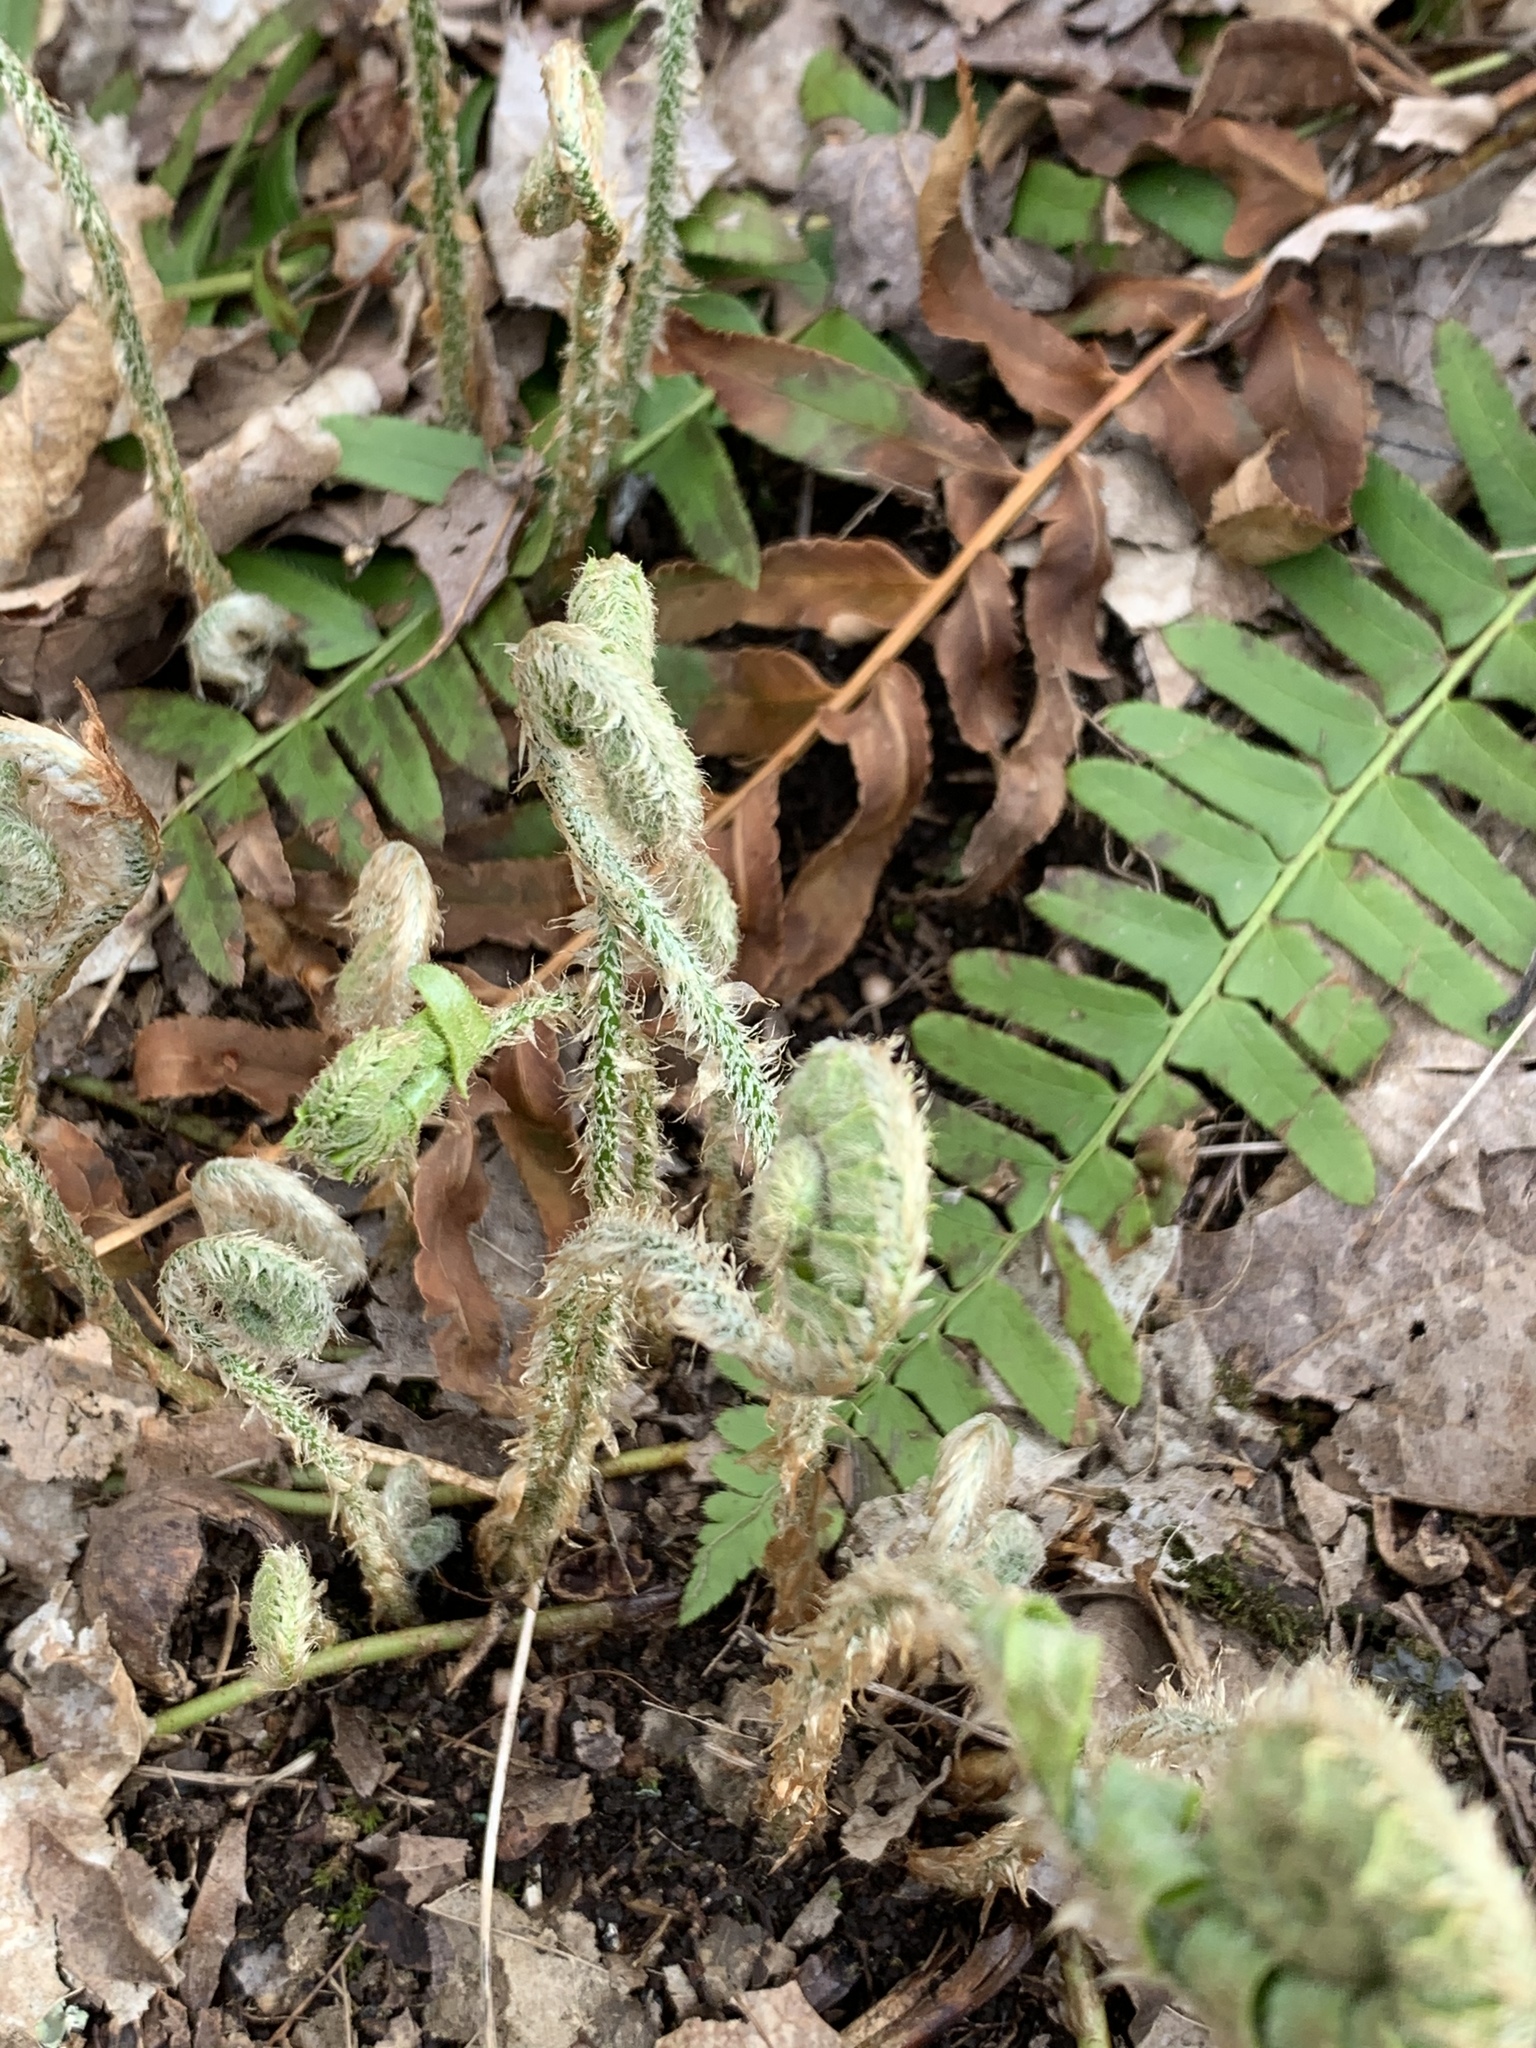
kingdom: Plantae
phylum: Tracheophyta
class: Polypodiopsida
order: Polypodiales
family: Dryopteridaceae
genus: Polystichum
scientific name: Polystichum acrostichoides
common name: Christmas fern
